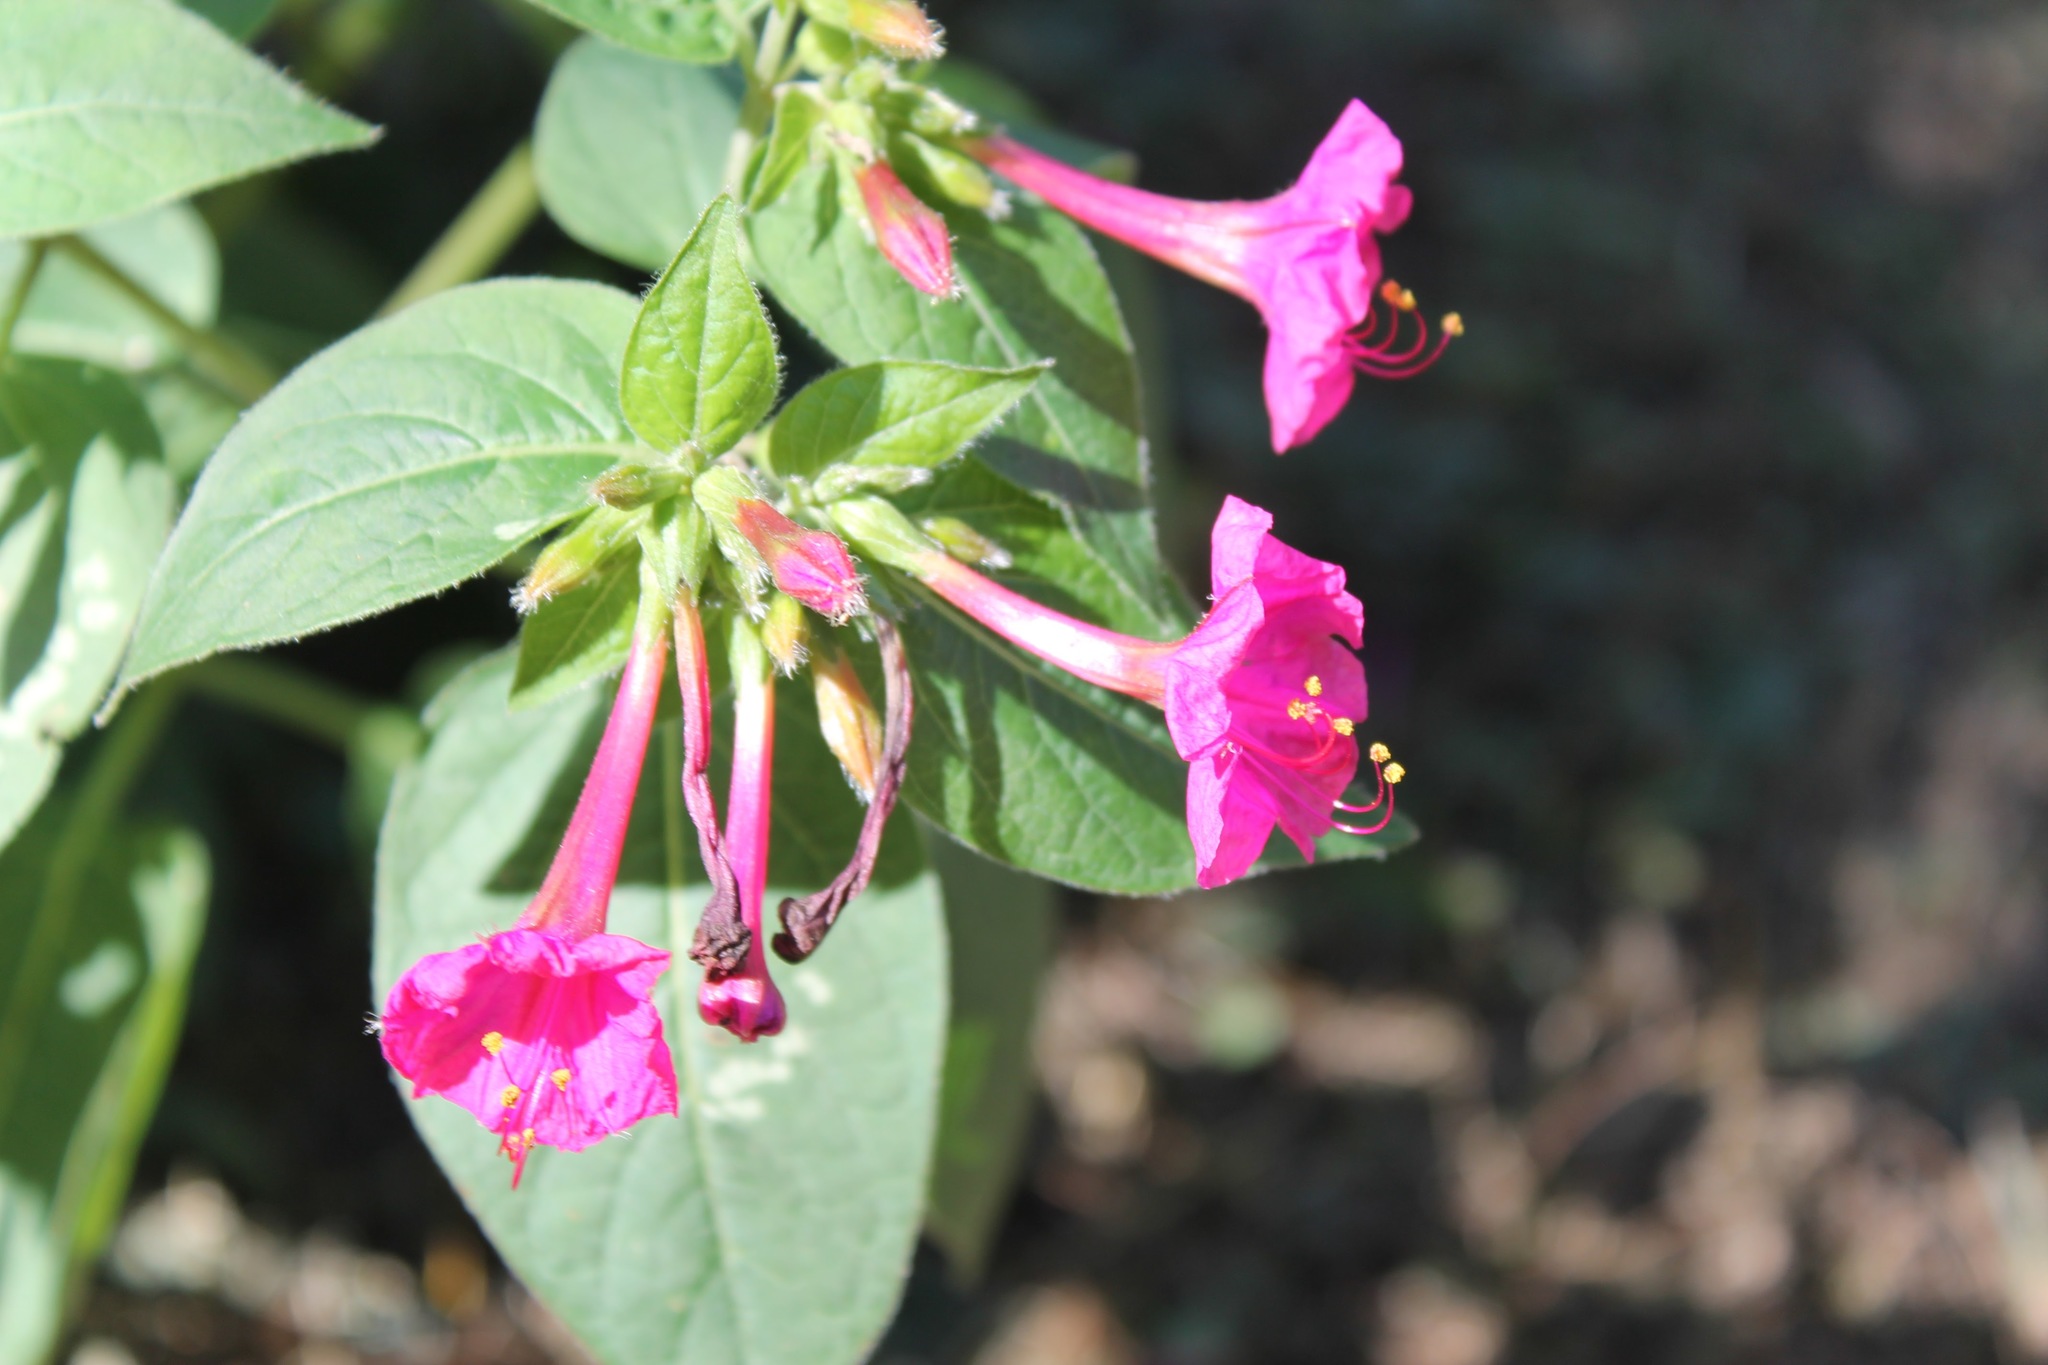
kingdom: Plantae
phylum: Tracheophyta
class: Magnoliopsida
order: Caryophyllales
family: Nyctaginaceae
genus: Mirabilis
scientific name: Mirabilis jalapa
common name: Marvel-of-peru
